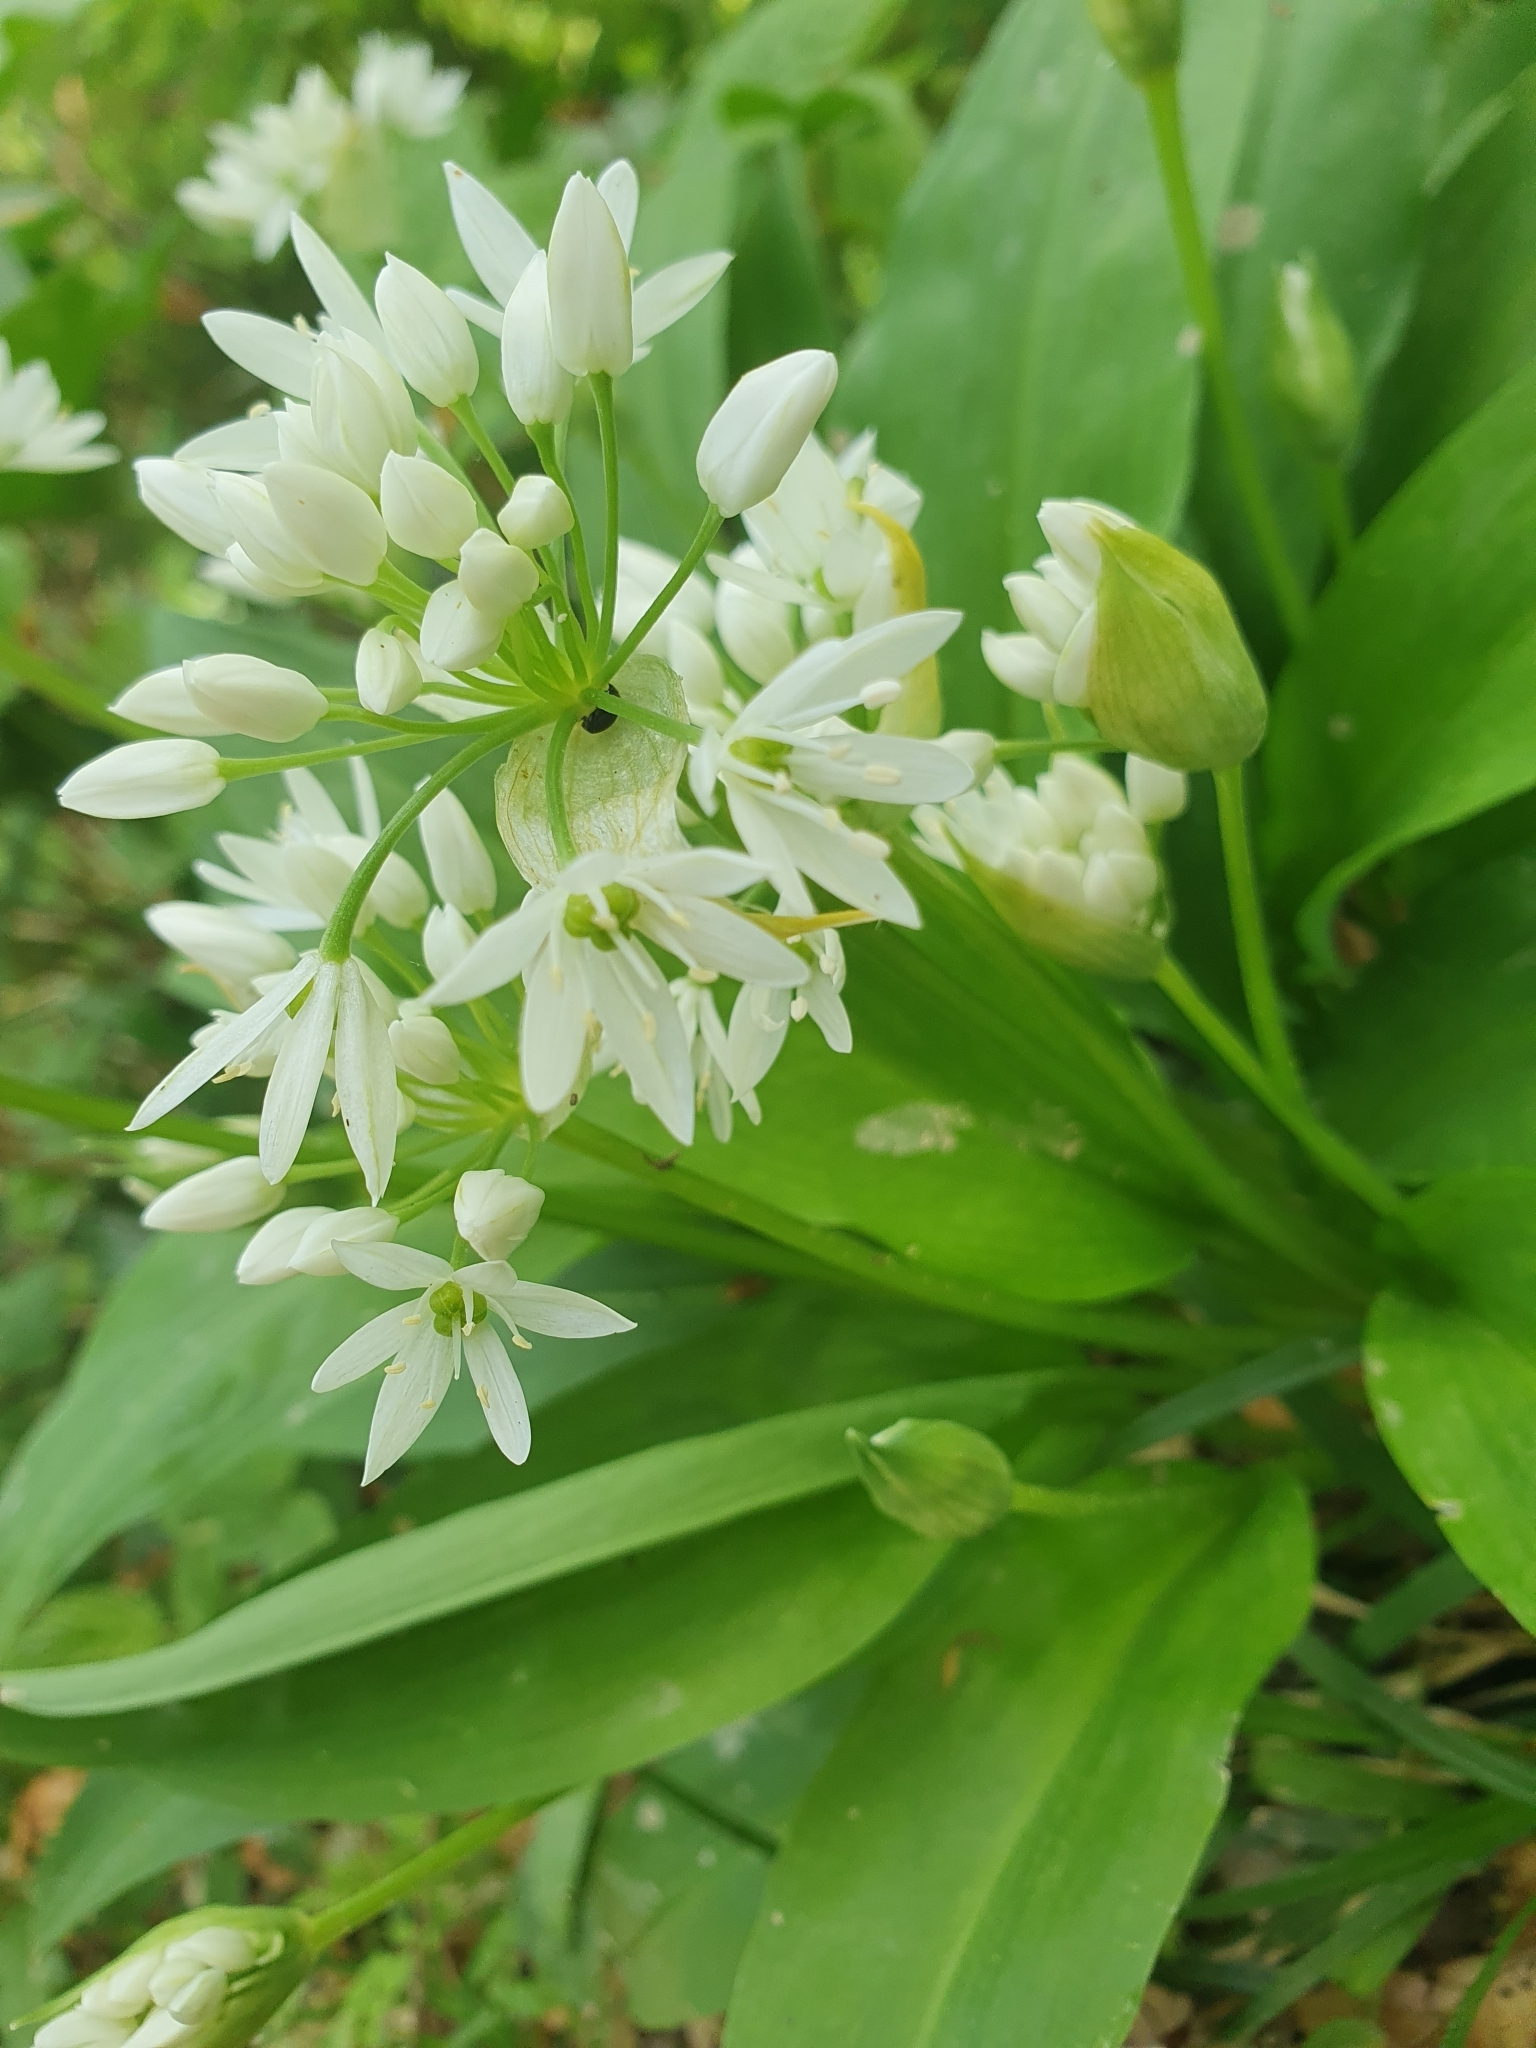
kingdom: Plantae
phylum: Tracheophyta
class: Liliopsida
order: Asparagales
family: Amaryllidaceae
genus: Allium
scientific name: Allium ursinum
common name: Ramsons
